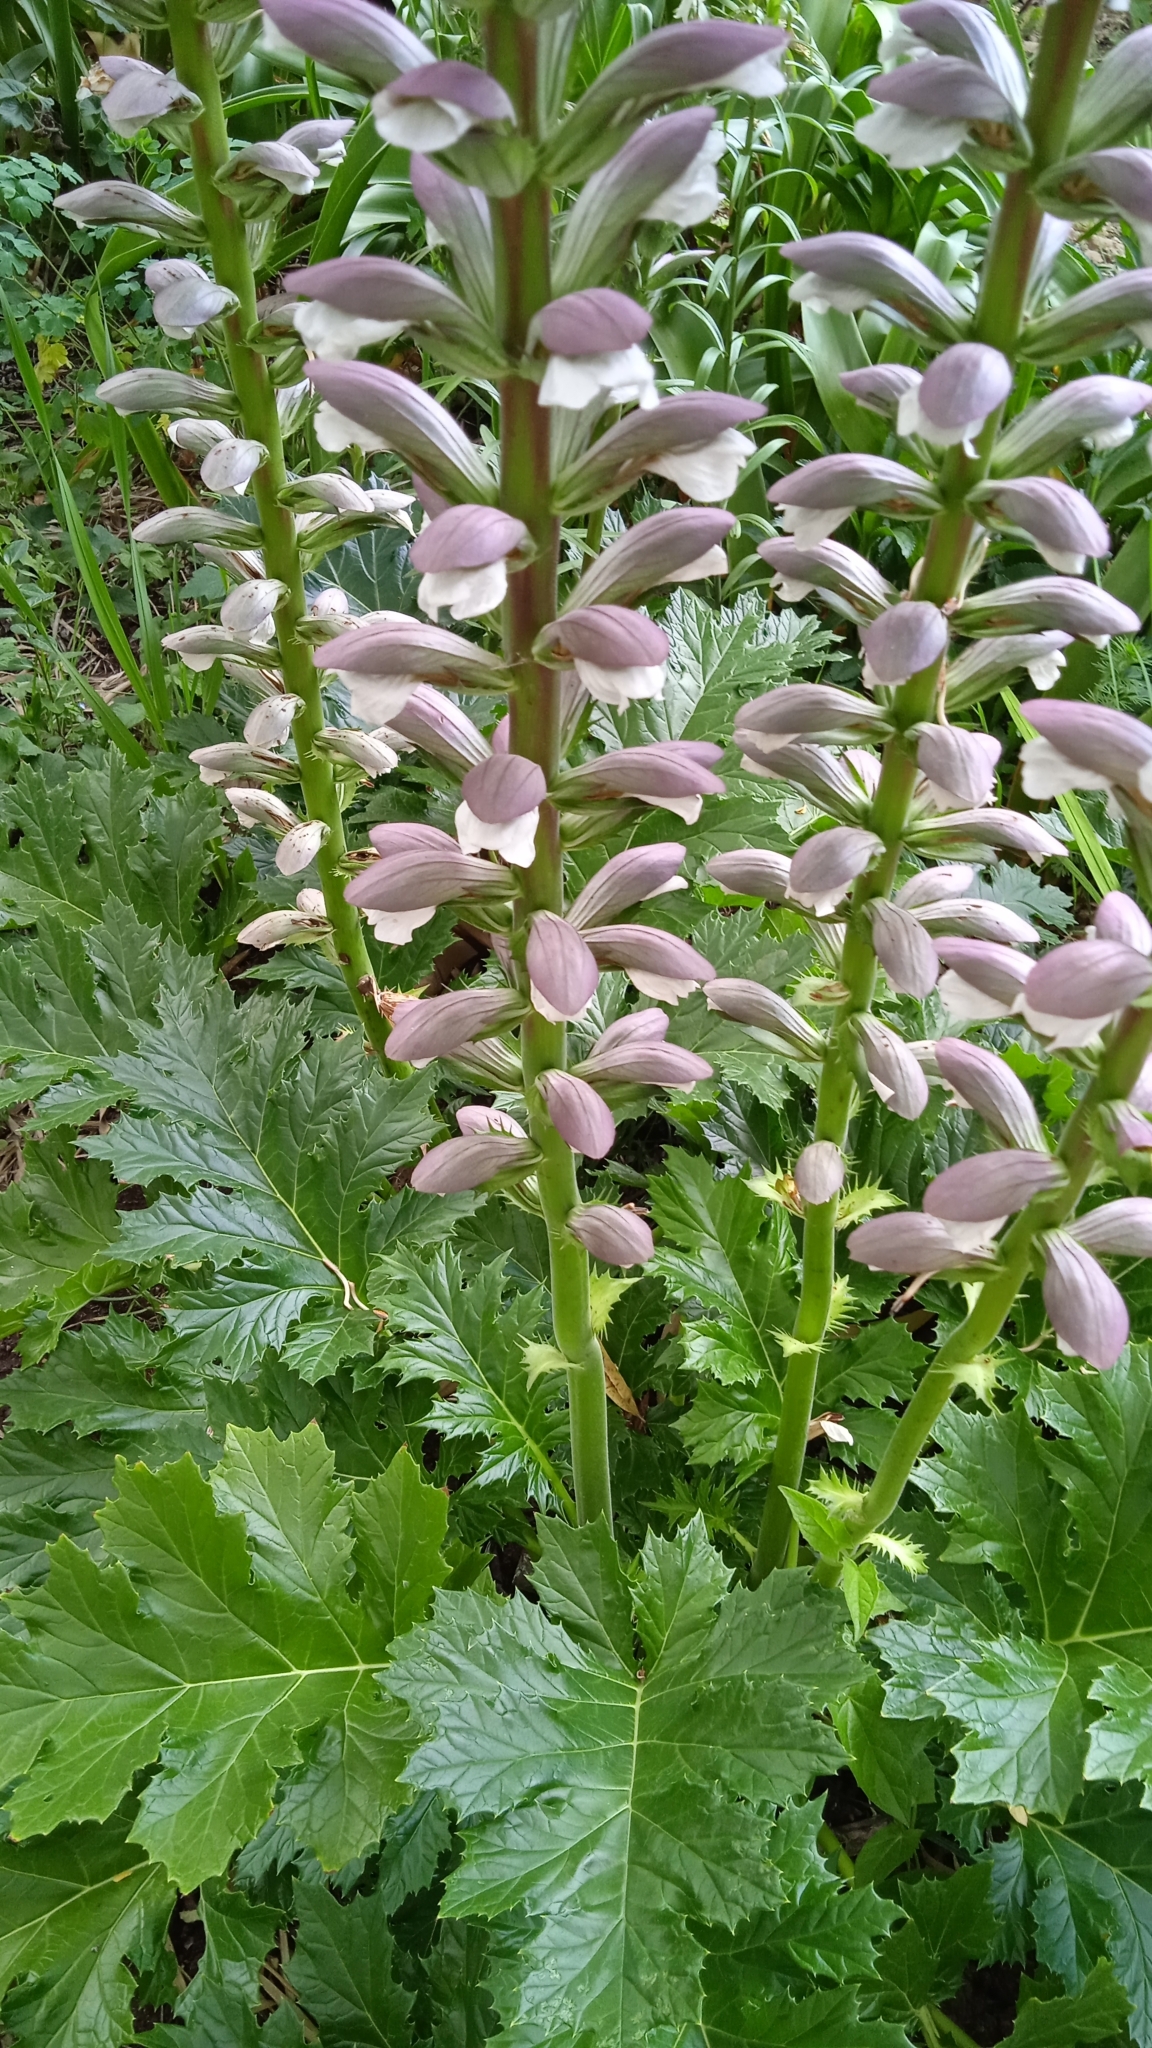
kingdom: Plantae
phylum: Tracheophyta
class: Magnoliopsida
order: Lamiales
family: Acanthaceae
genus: Acanthus
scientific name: Acanthus mollis
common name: Bear's-breech
